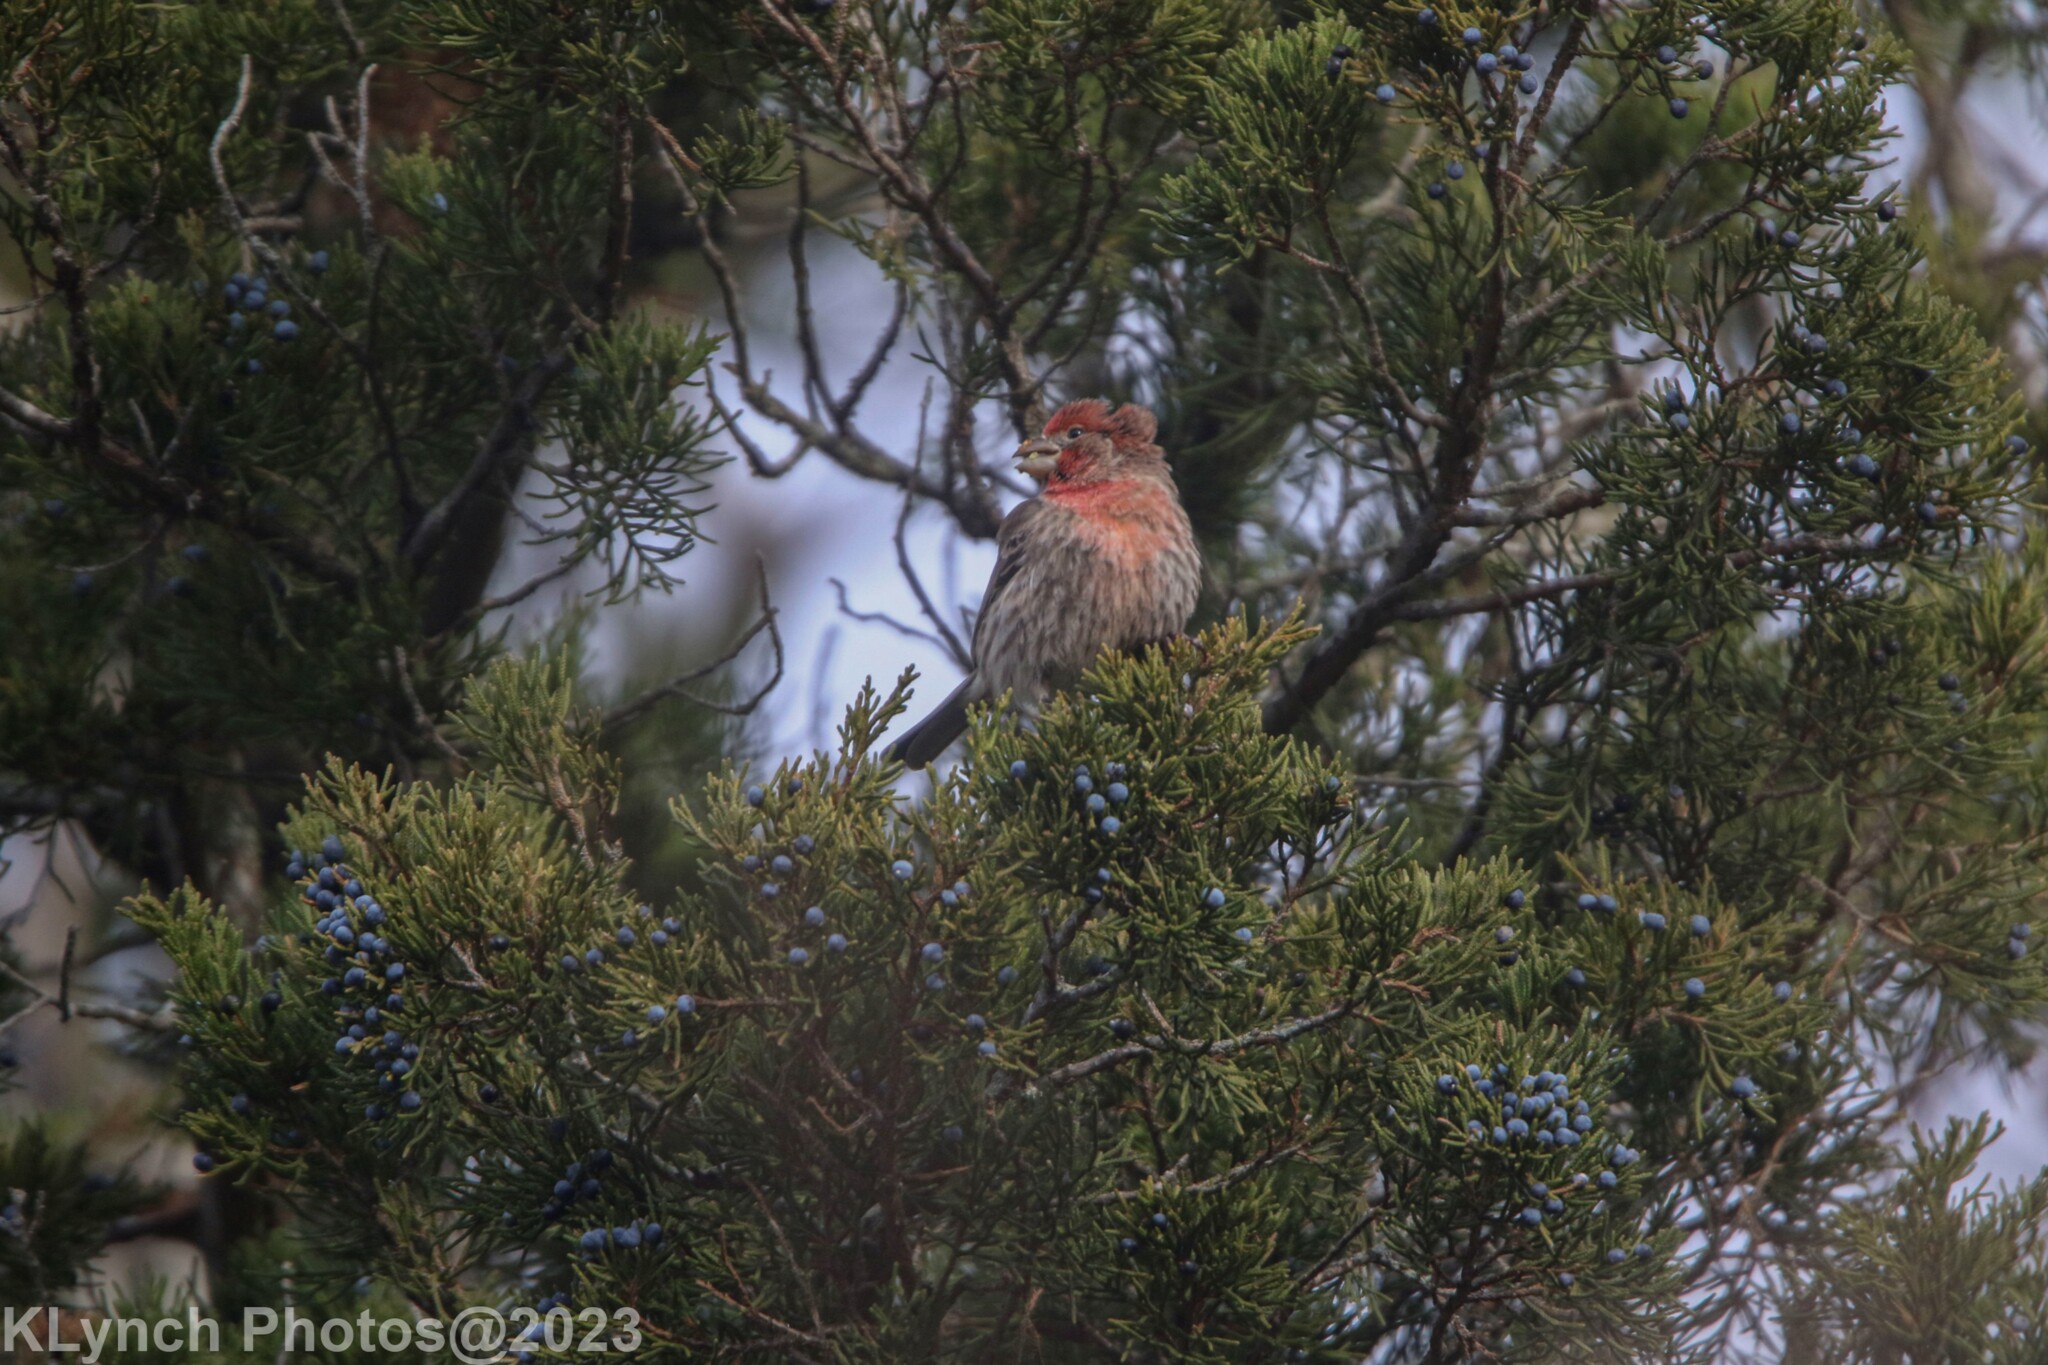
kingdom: Animalia
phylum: Chordata
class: Aves
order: Passeriformes
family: Fringillidae
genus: Haemorhous
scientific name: Haemorhous mexicanus
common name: House finch
